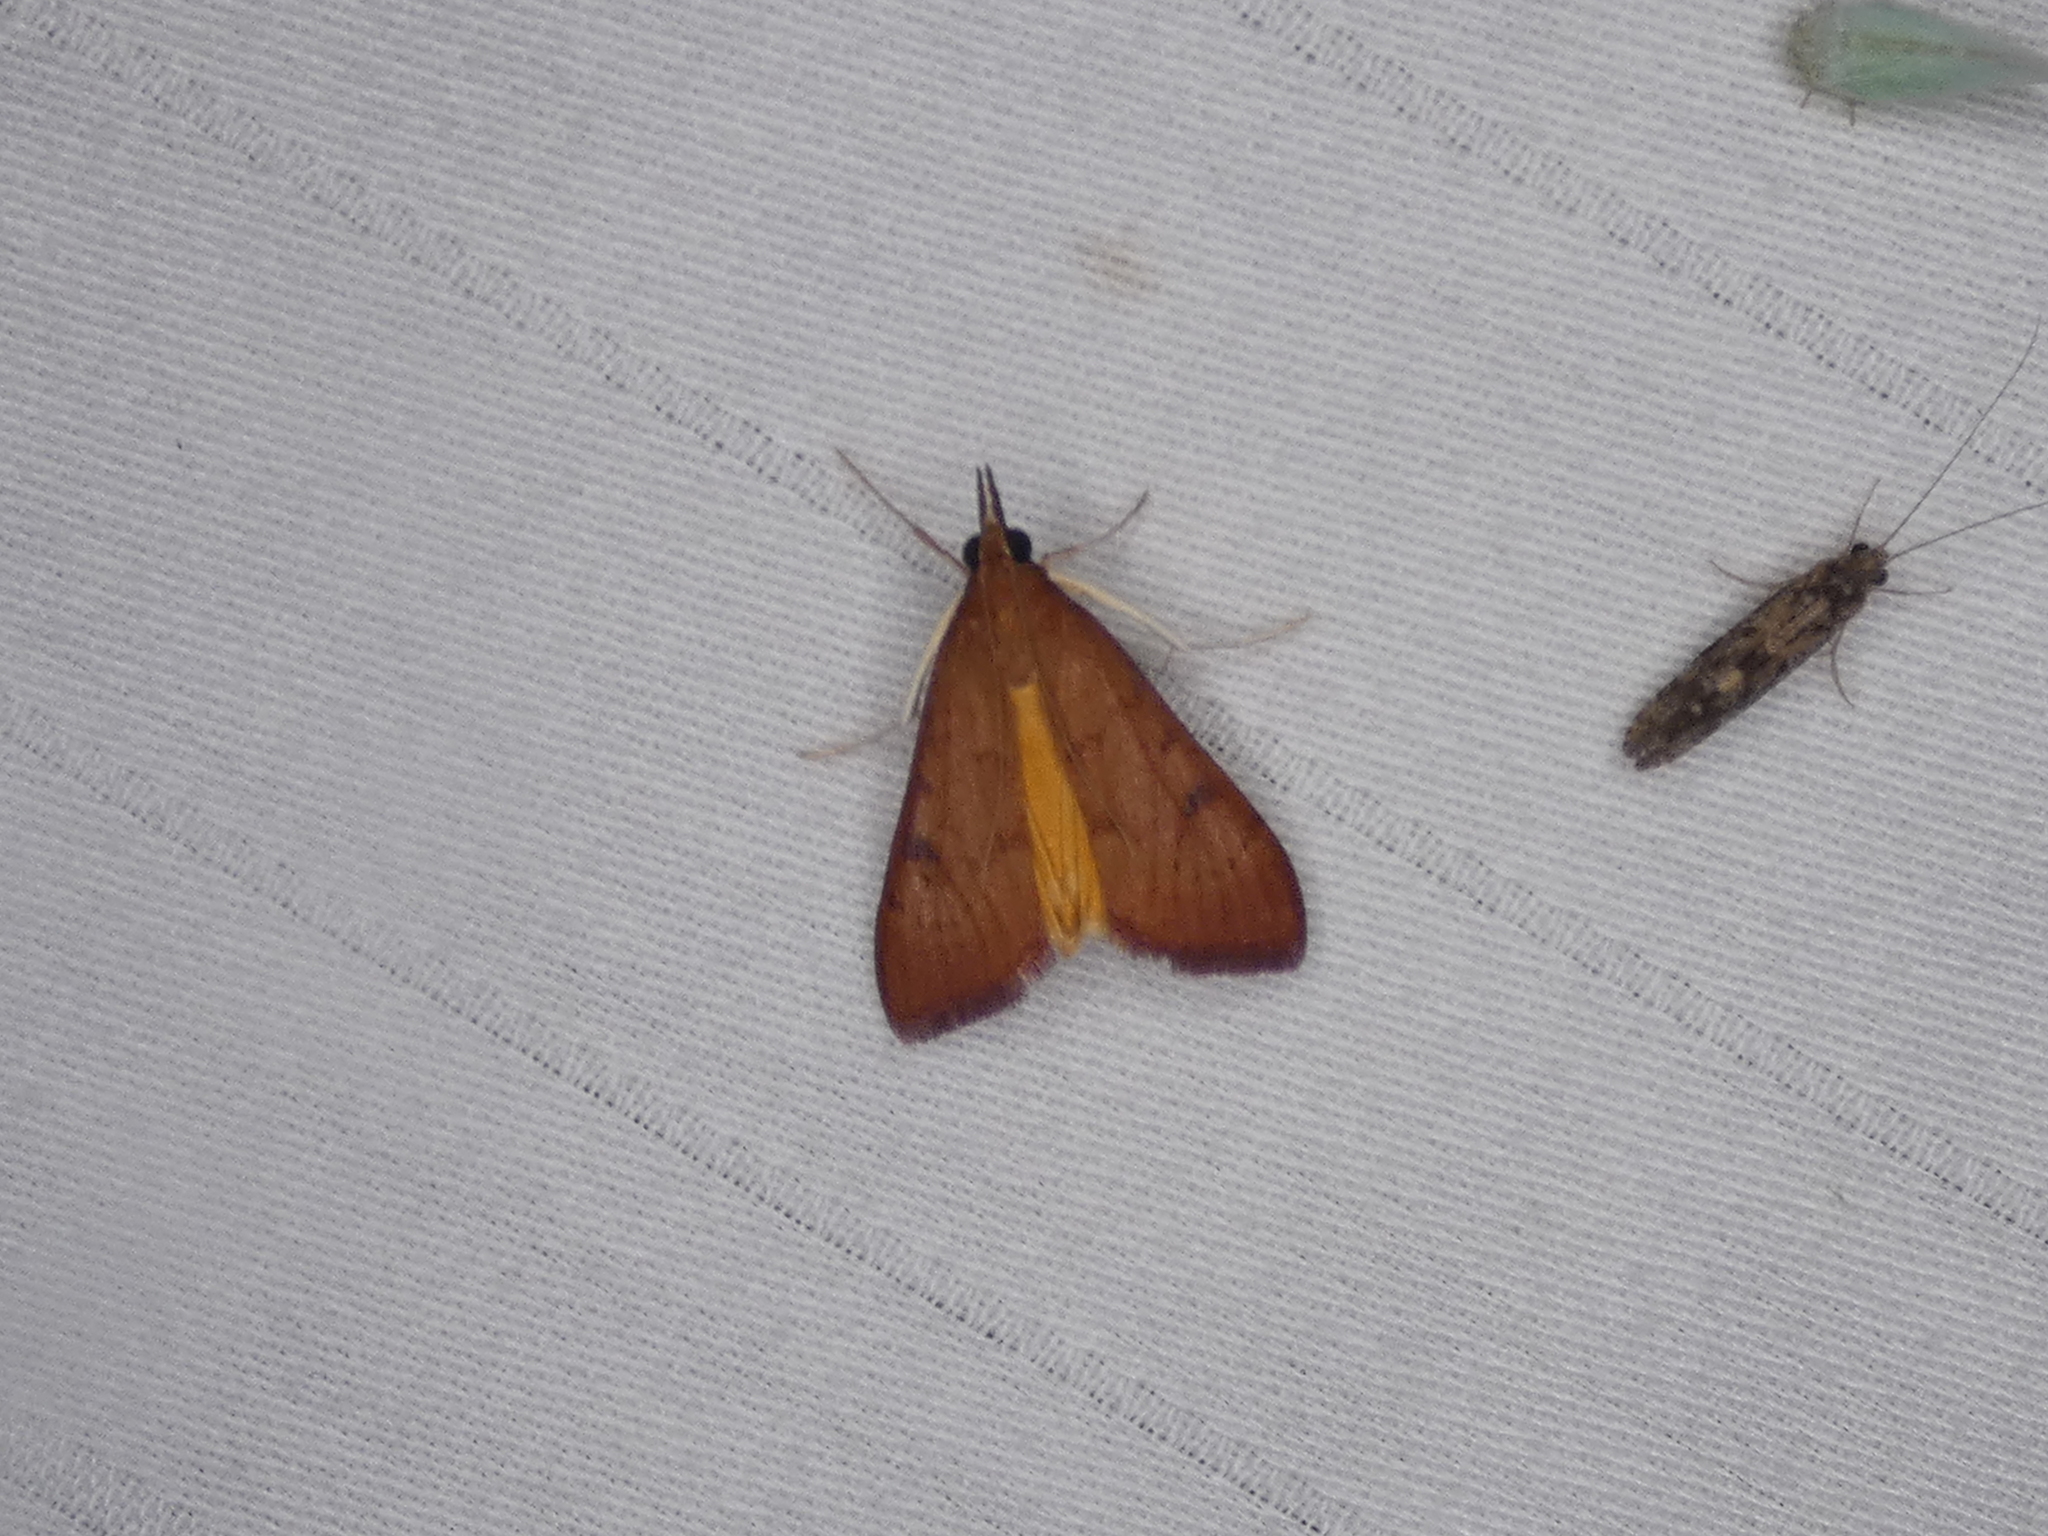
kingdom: Animalia
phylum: Arthropoda
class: Insecta
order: Lepidoptera
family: Crambidae
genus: Uresiphita
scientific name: Uresiphita reversalis
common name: Genista broom moth
